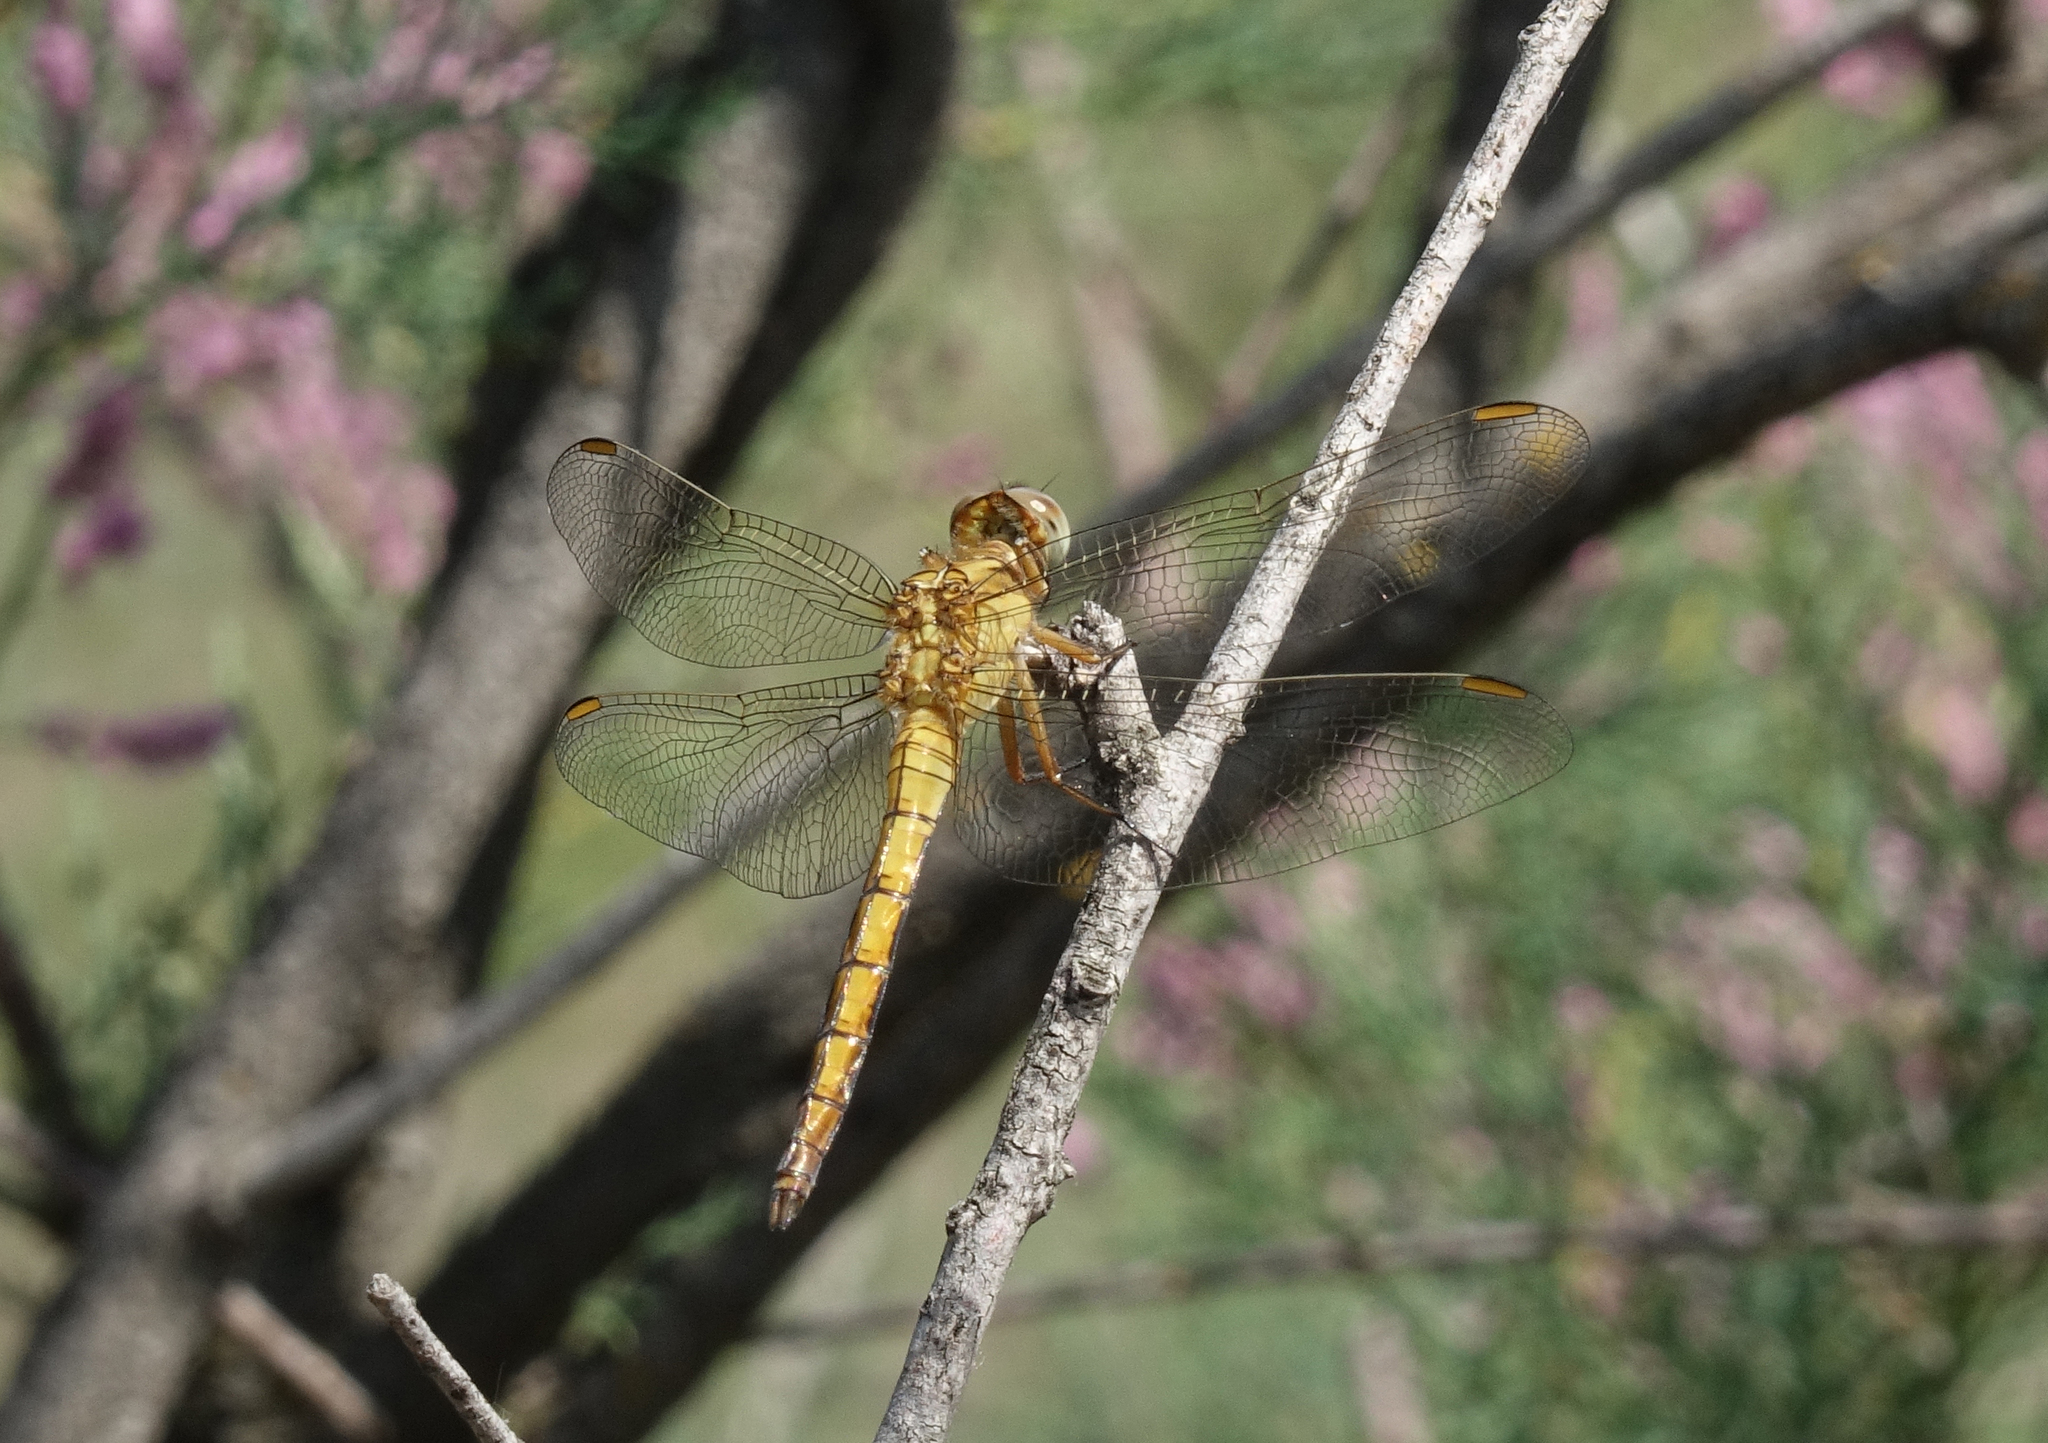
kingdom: Animalia
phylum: Arthropoda
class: Insecta
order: Odonata
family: Libellulidae
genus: Orthetrum
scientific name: Orthetrum coerulescens
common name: Keeled skimmer
